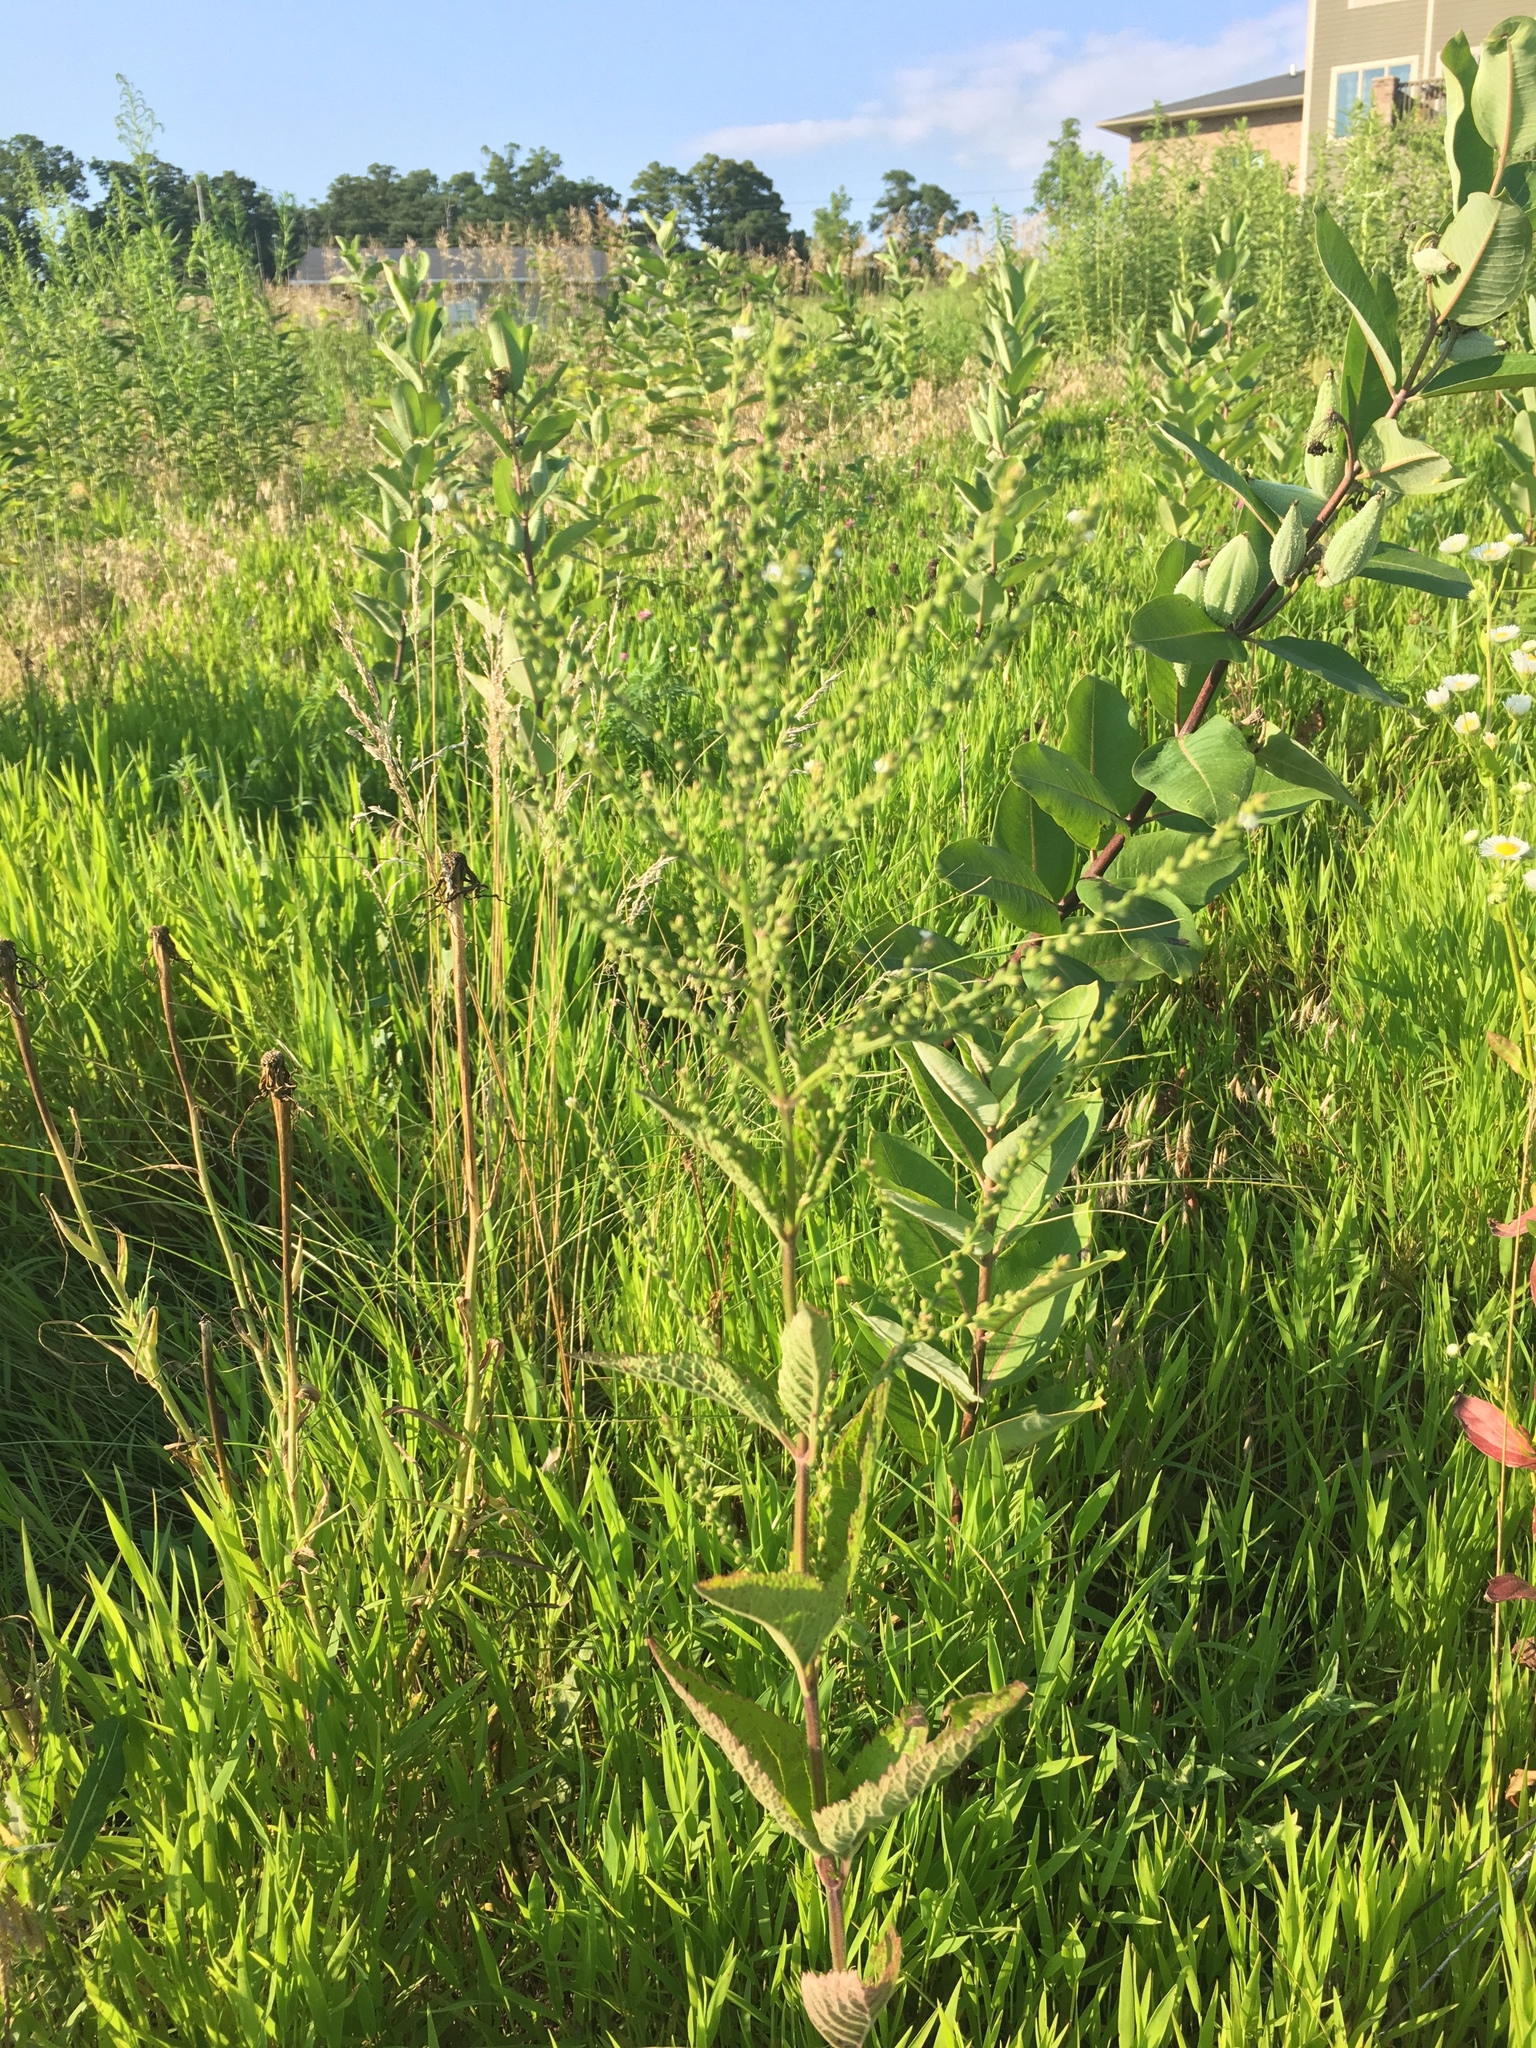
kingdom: Plantae
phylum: Tracheophyta
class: Magnoliopsida
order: Lamiales
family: Verbenaceae
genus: Verbena
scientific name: Verbena urticifolia
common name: Nettle-leaved vervain
